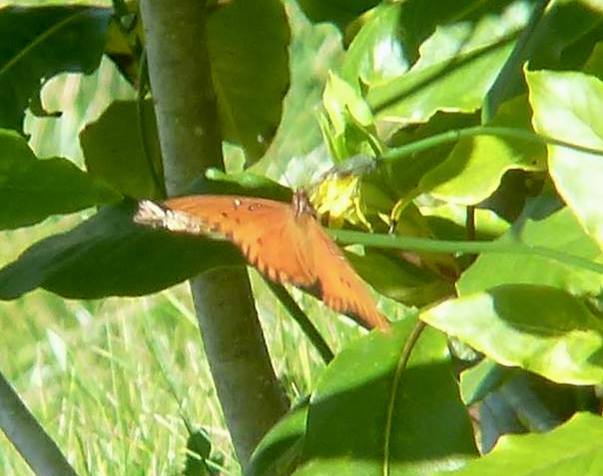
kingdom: Animalia
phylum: Arthropoda
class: Insecta
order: Lepidoptera
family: Nymphalidae
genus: Dione
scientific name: Dione vanillae
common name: Gulf fritillary
